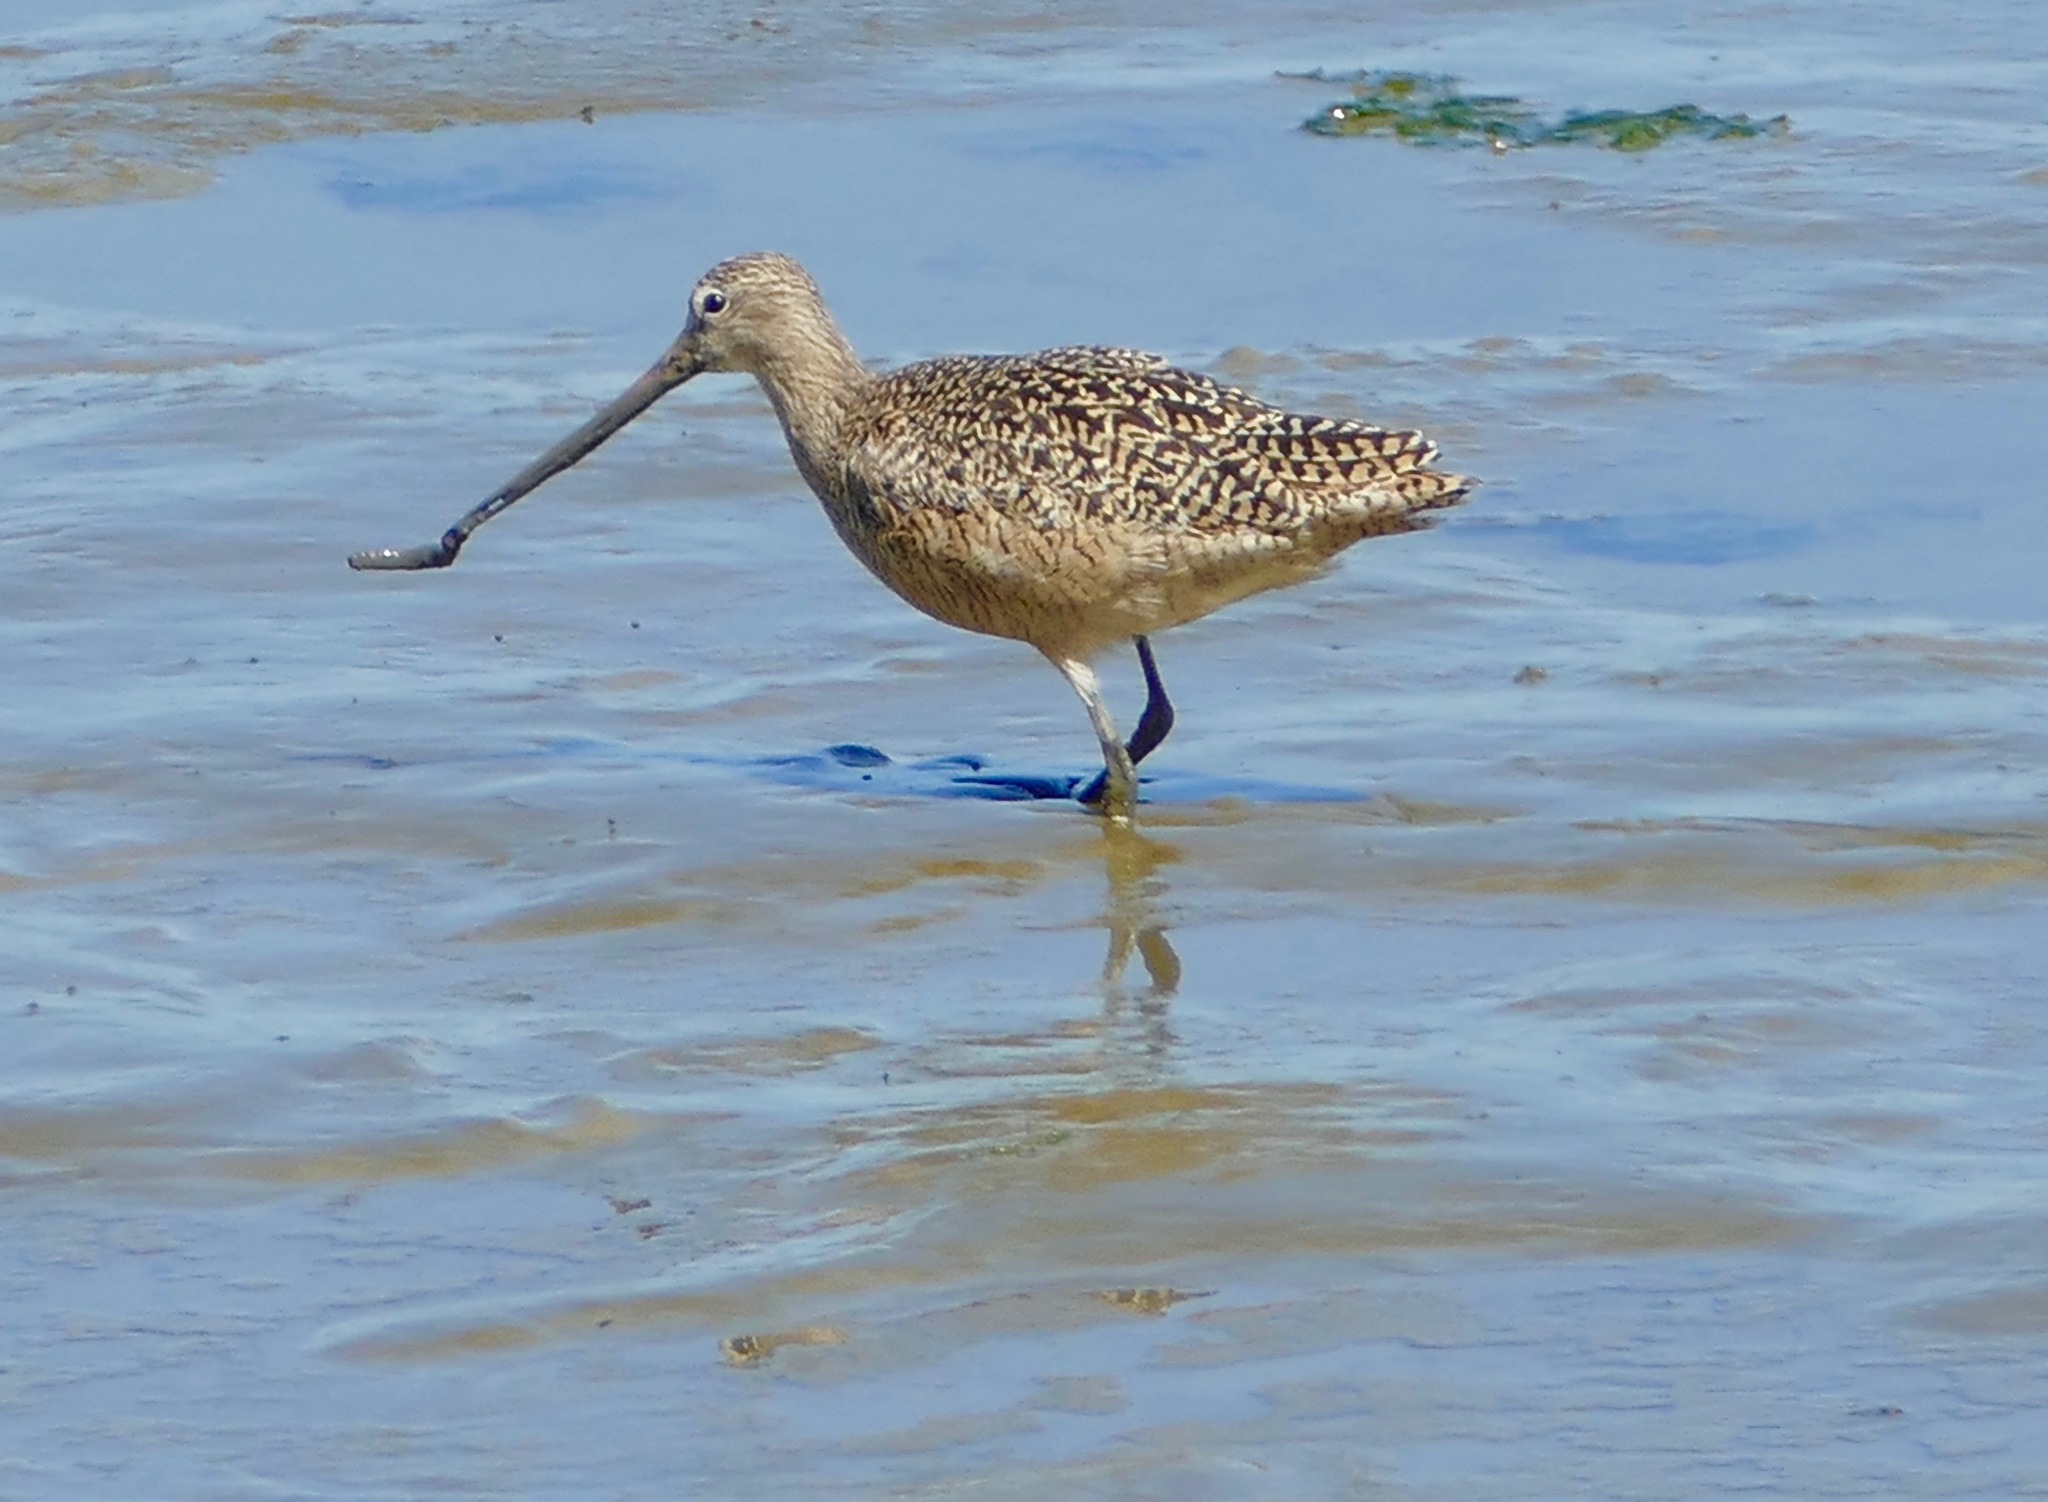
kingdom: Animalia
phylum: Chordata
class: Aves
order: Charadriiformes
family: Scolopacidae
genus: Limosa
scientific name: Limosa fedoa
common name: Marbled godwit
